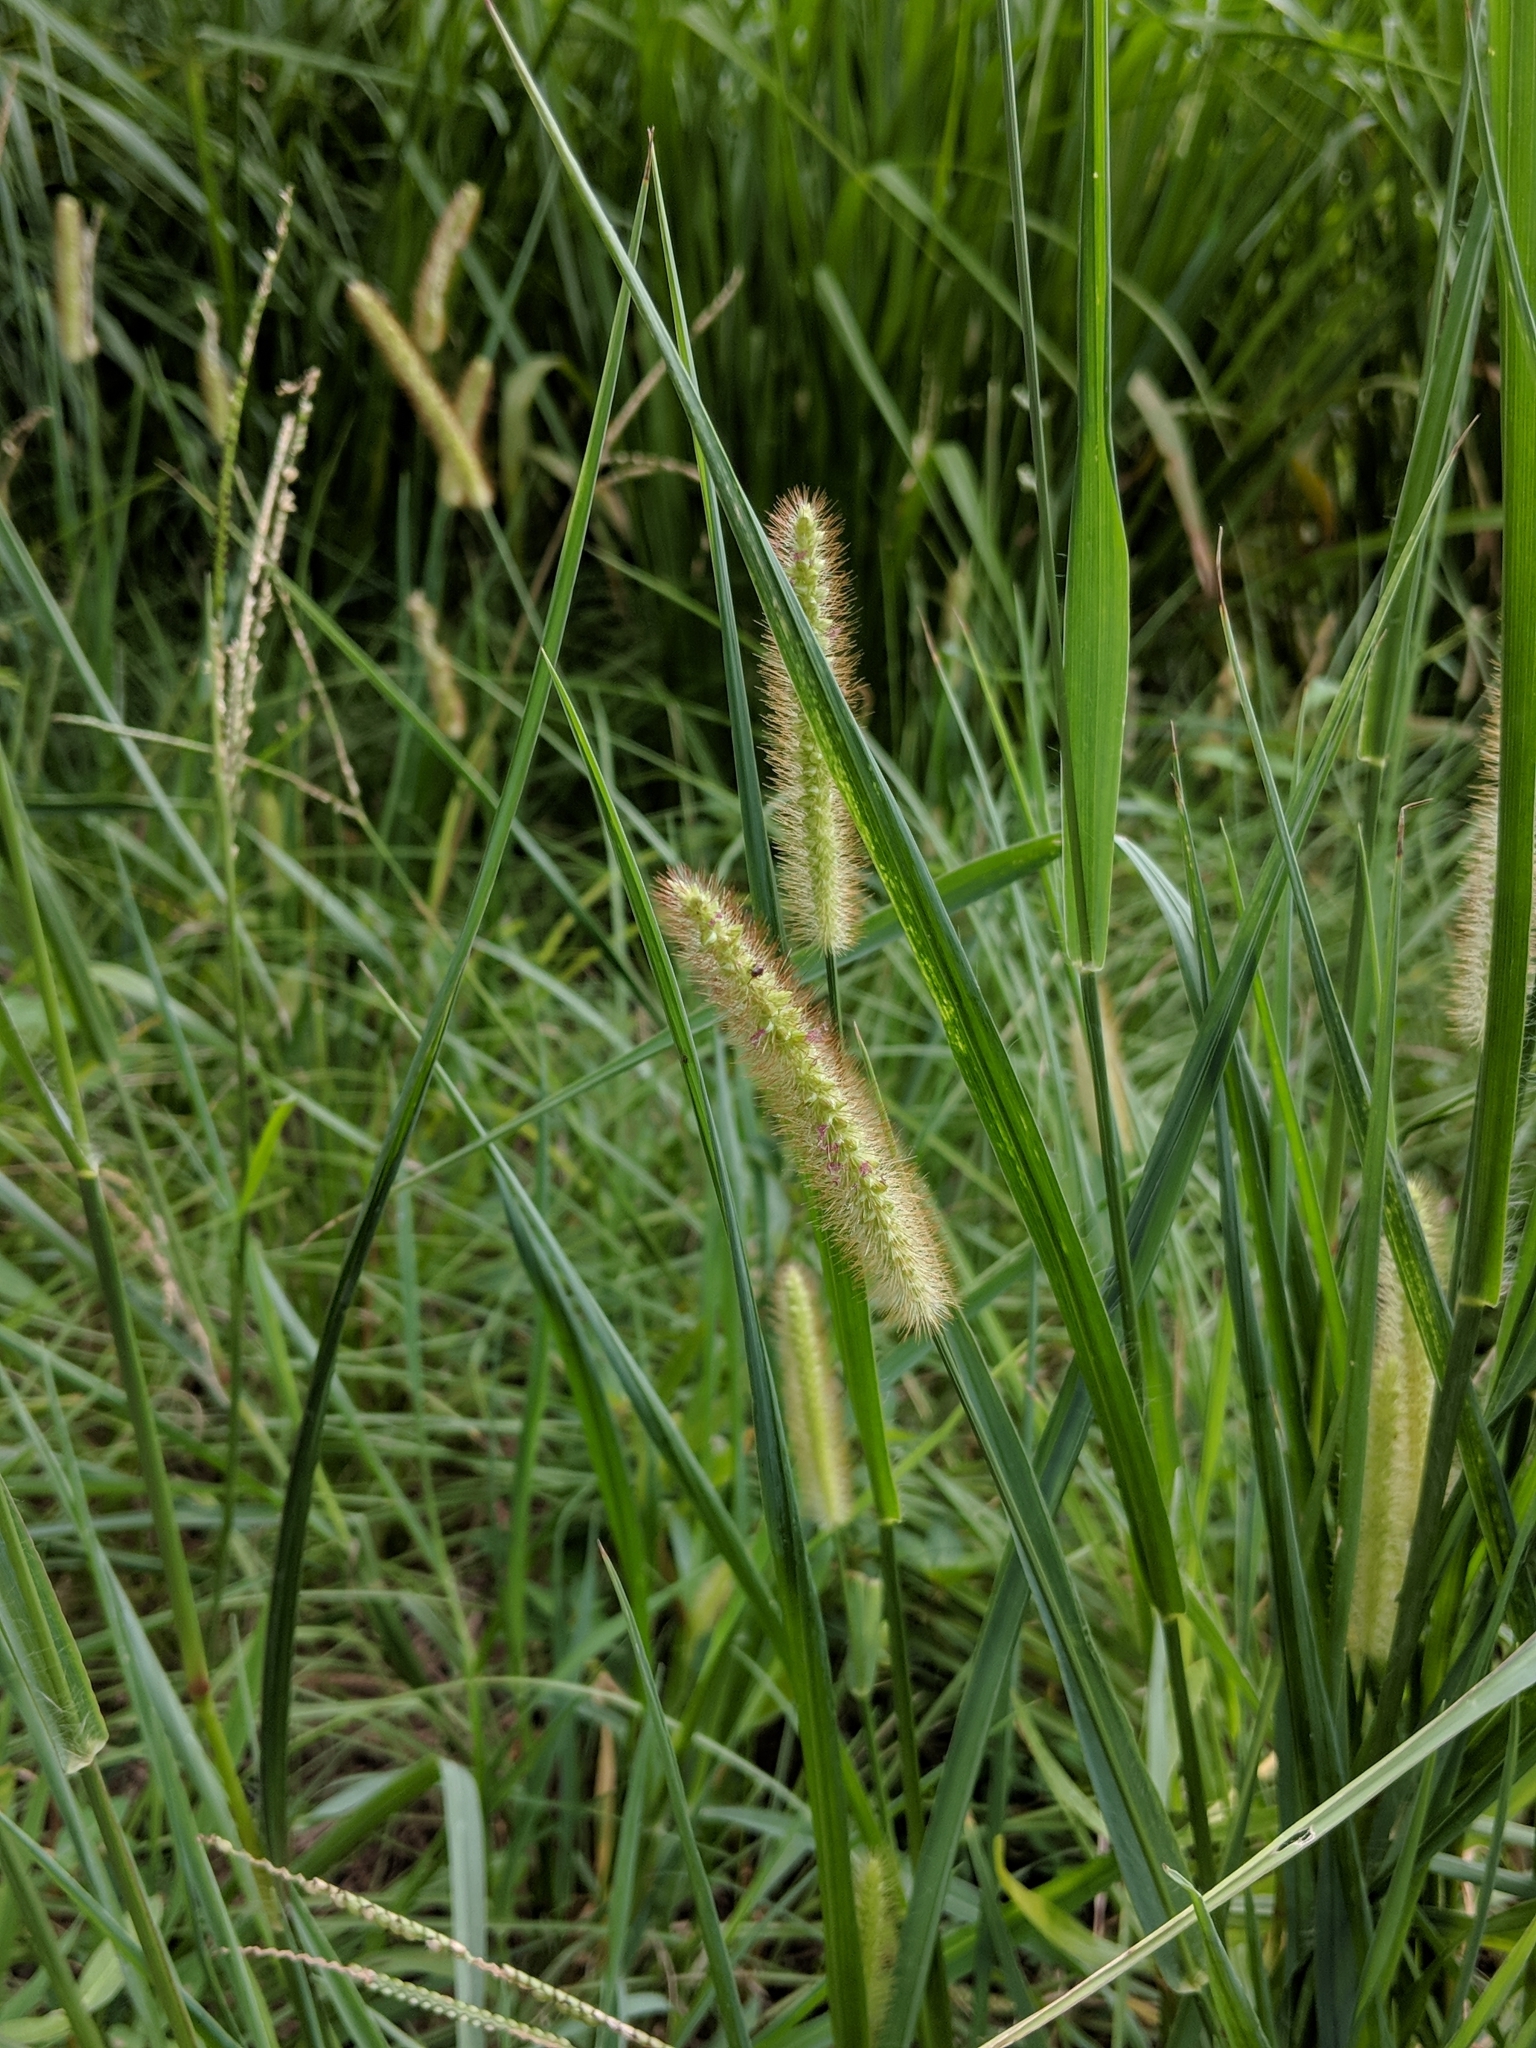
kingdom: Plantae
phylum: Tracheophyta
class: Liliopsida
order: Poales
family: Poaceae
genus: Setaria
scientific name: Setaria pumila
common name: Yellow bristle-grass
